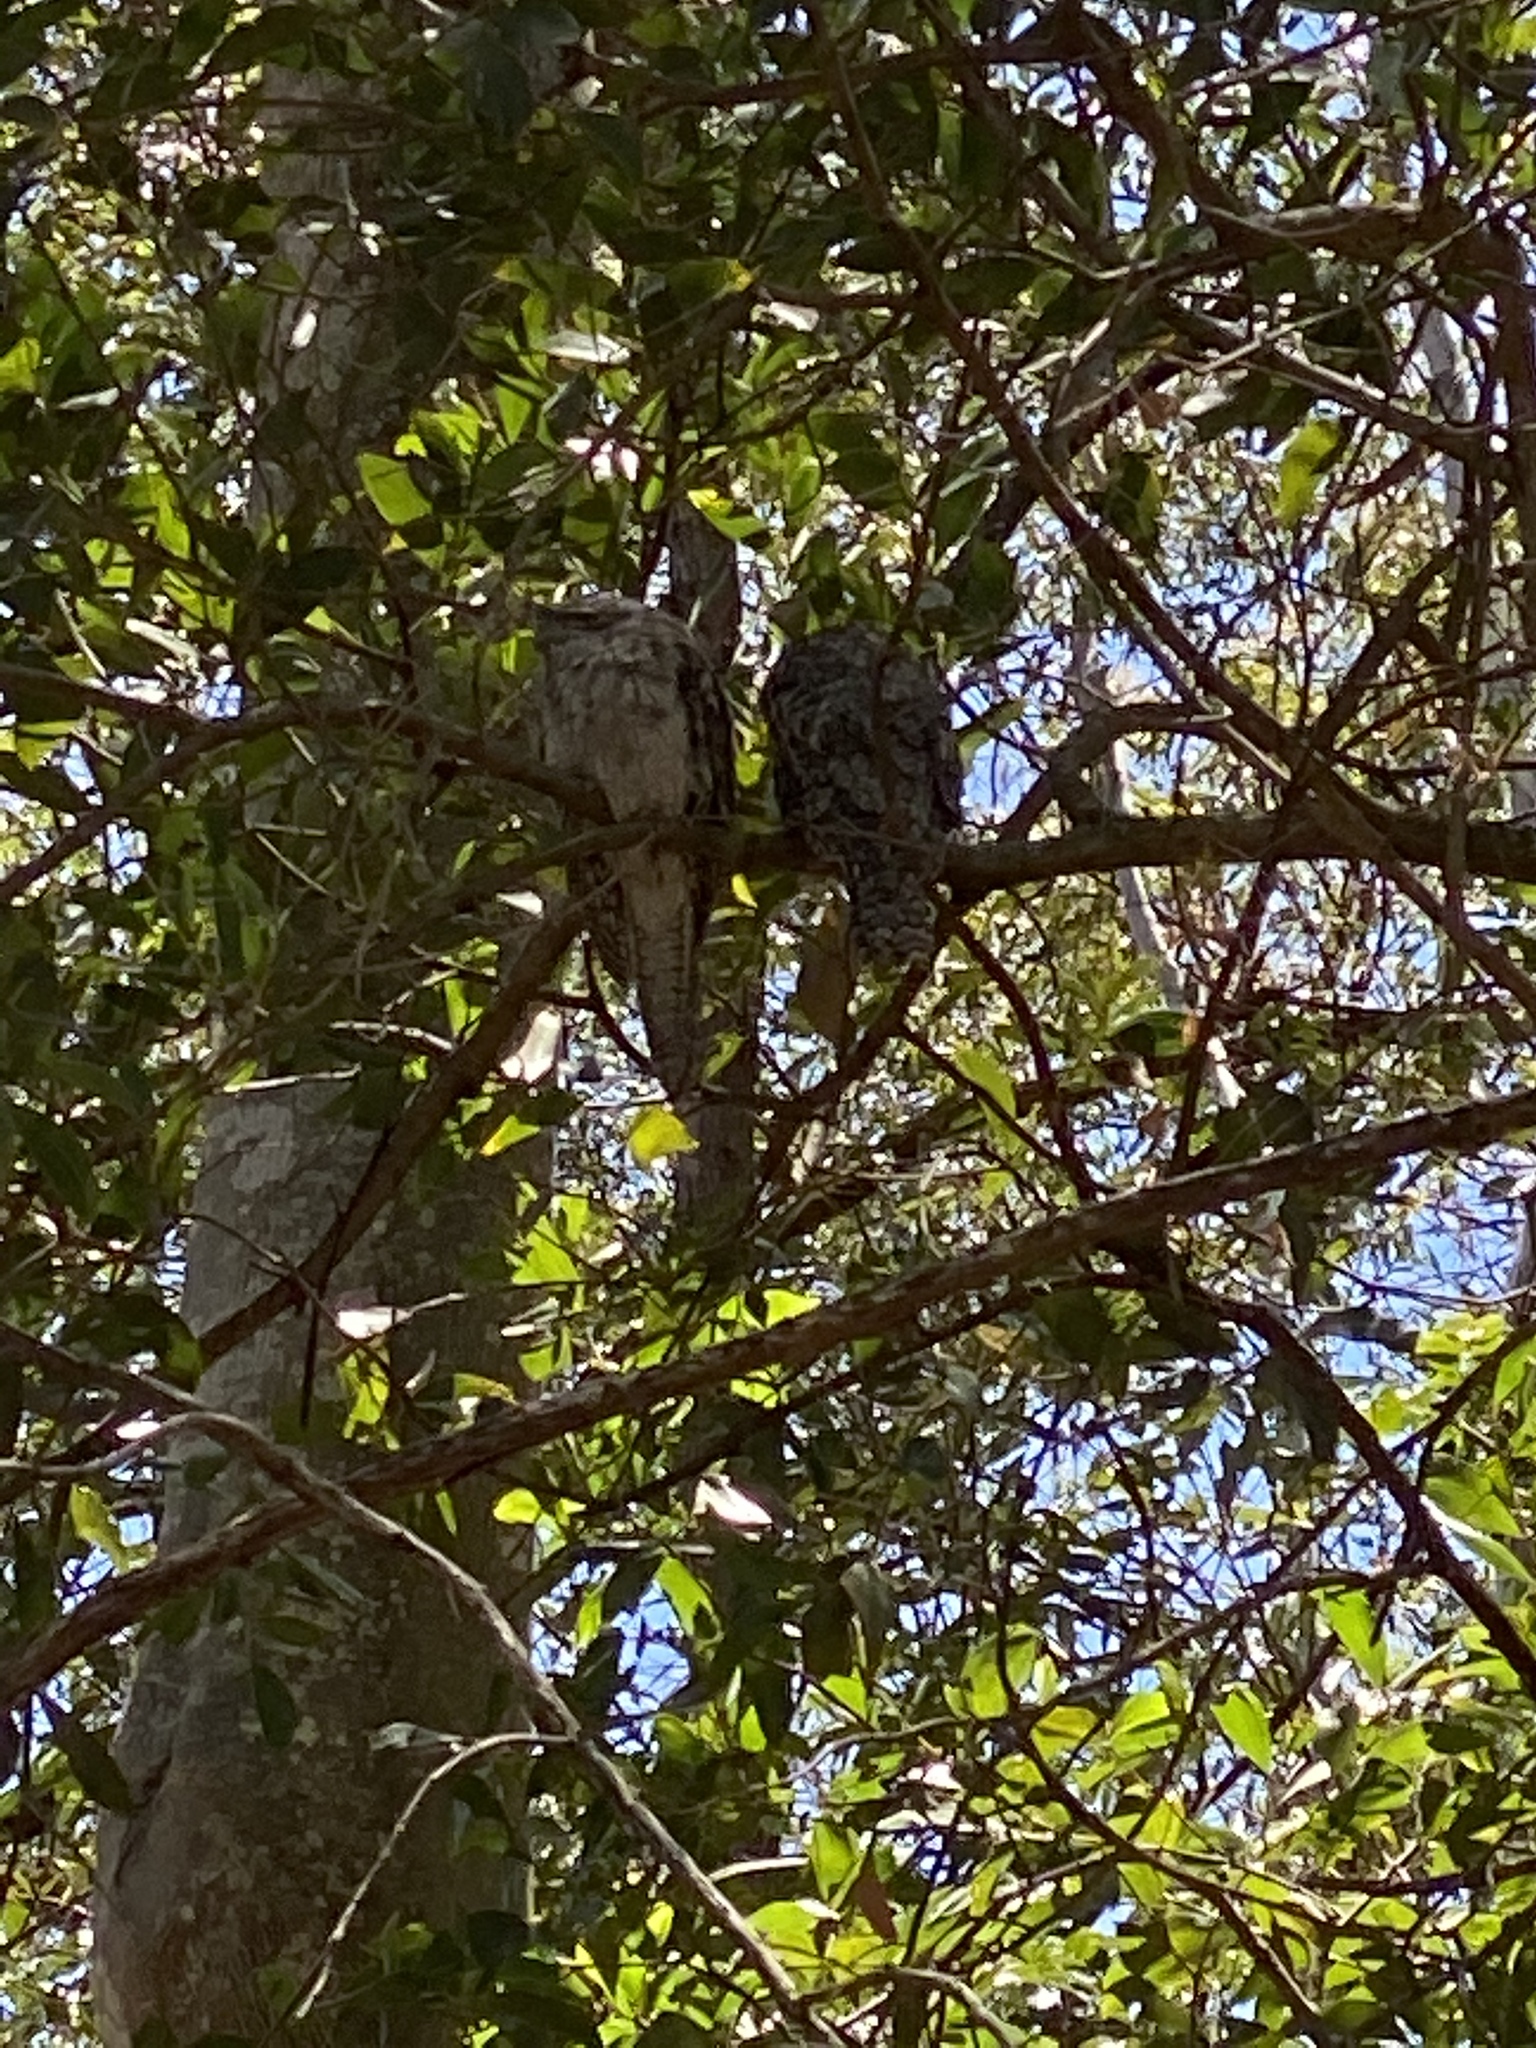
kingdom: Animalia
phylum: Chordata
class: Aves
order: Caprimulgiformes
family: Podargidae
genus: Podargus
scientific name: Podargus strigoides
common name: Tawny frogmouth
